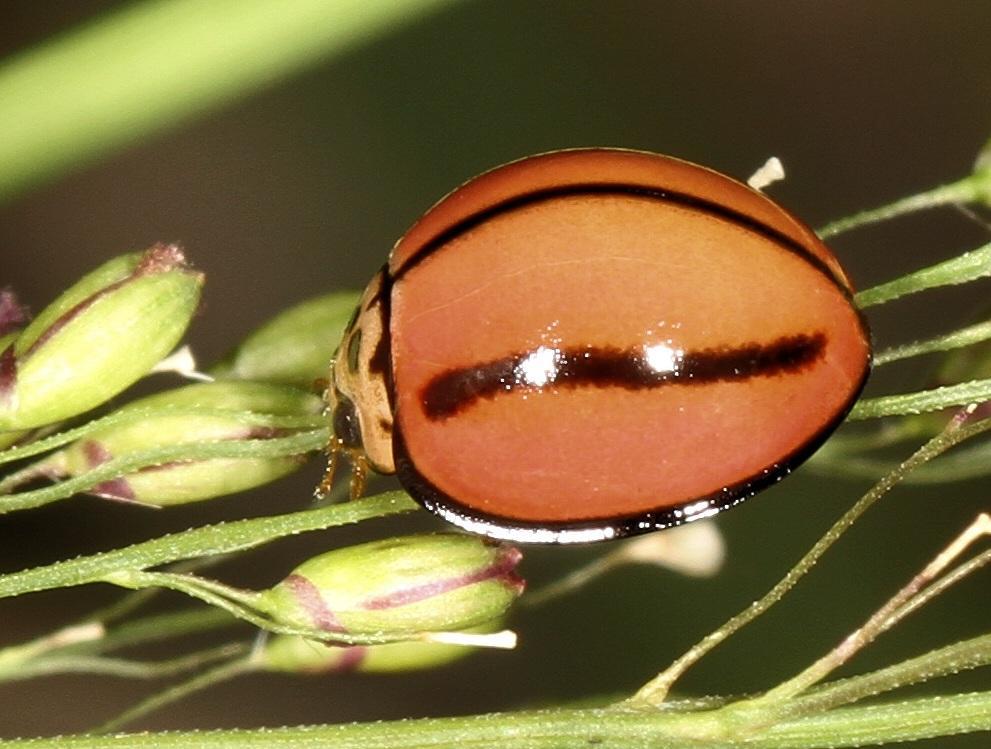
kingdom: Animalia
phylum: Arthropoda
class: Insecta
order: Coleoptera
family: Coccinellidae
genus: Declivitata
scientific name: Declivitata
